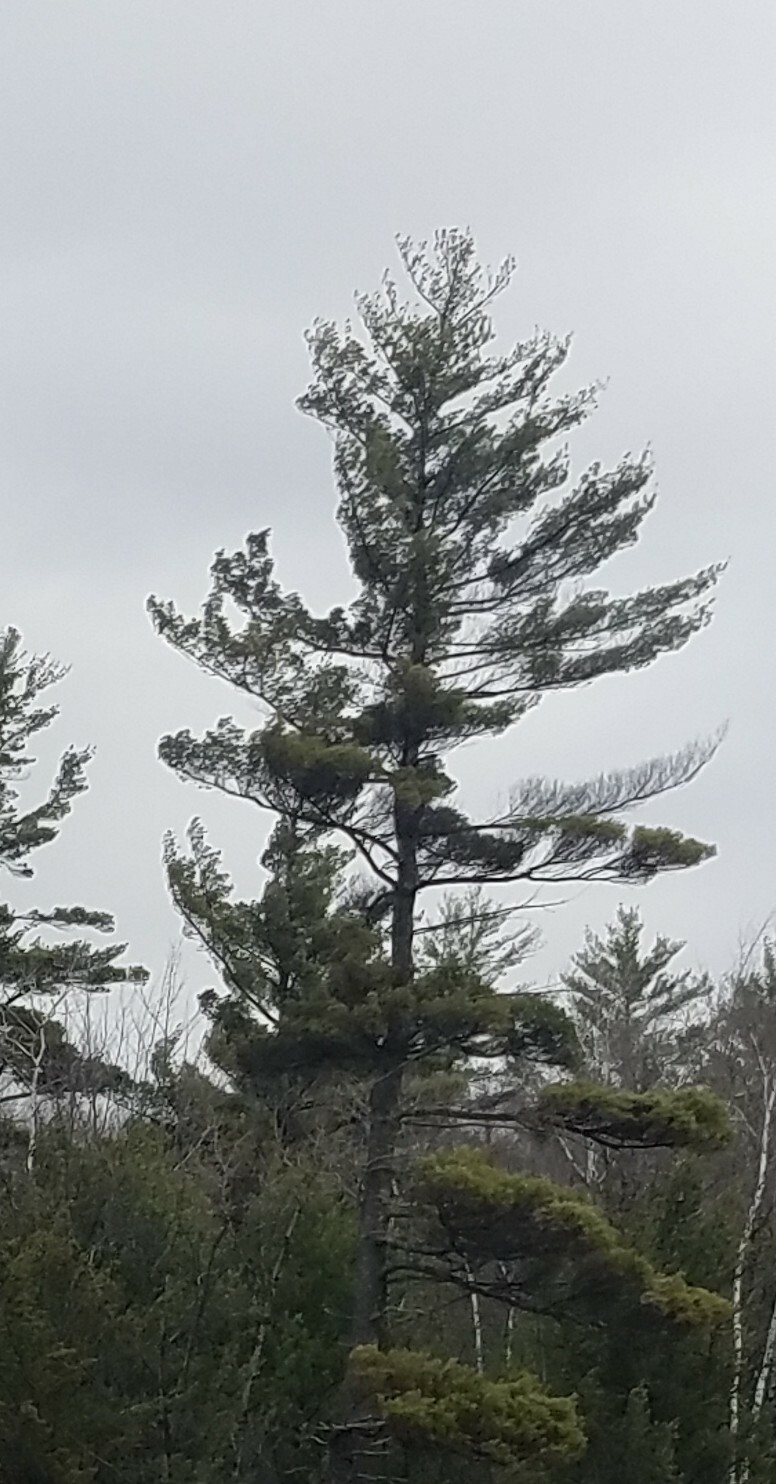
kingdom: Plantae
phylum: Tracheophyta
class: Pinopsida
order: Pinales
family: Pinaceae
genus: Pinus
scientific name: Pinus strobus
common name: Weymouth pine
